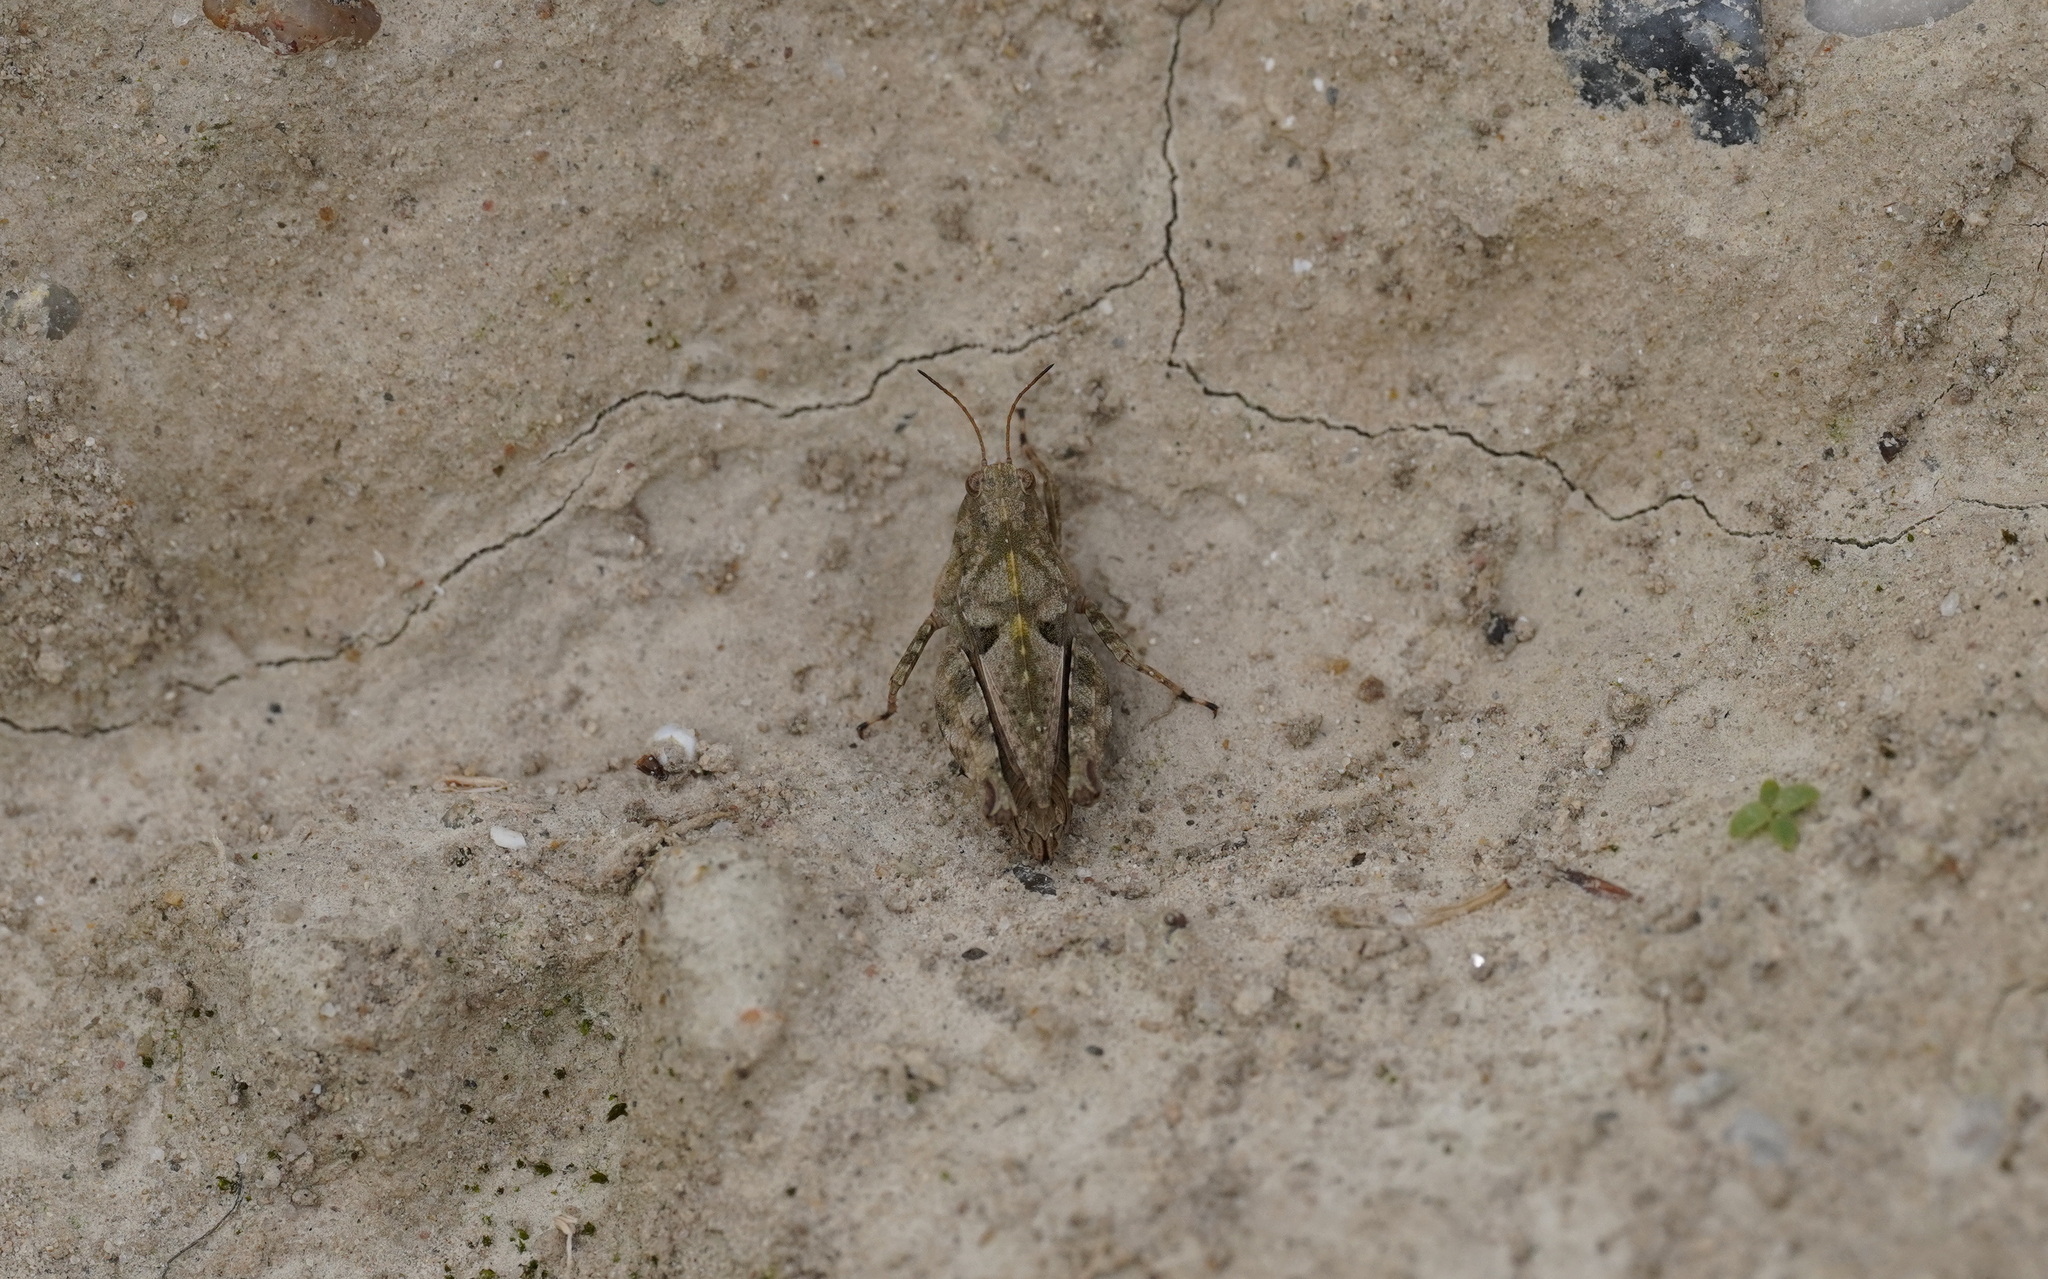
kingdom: Animalia
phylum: Arthropoda
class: Insecta
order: Orthoptera
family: Tetrigidae
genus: Tetrix
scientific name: Tetrix tenuicornis
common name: Long-horned groundhopper
